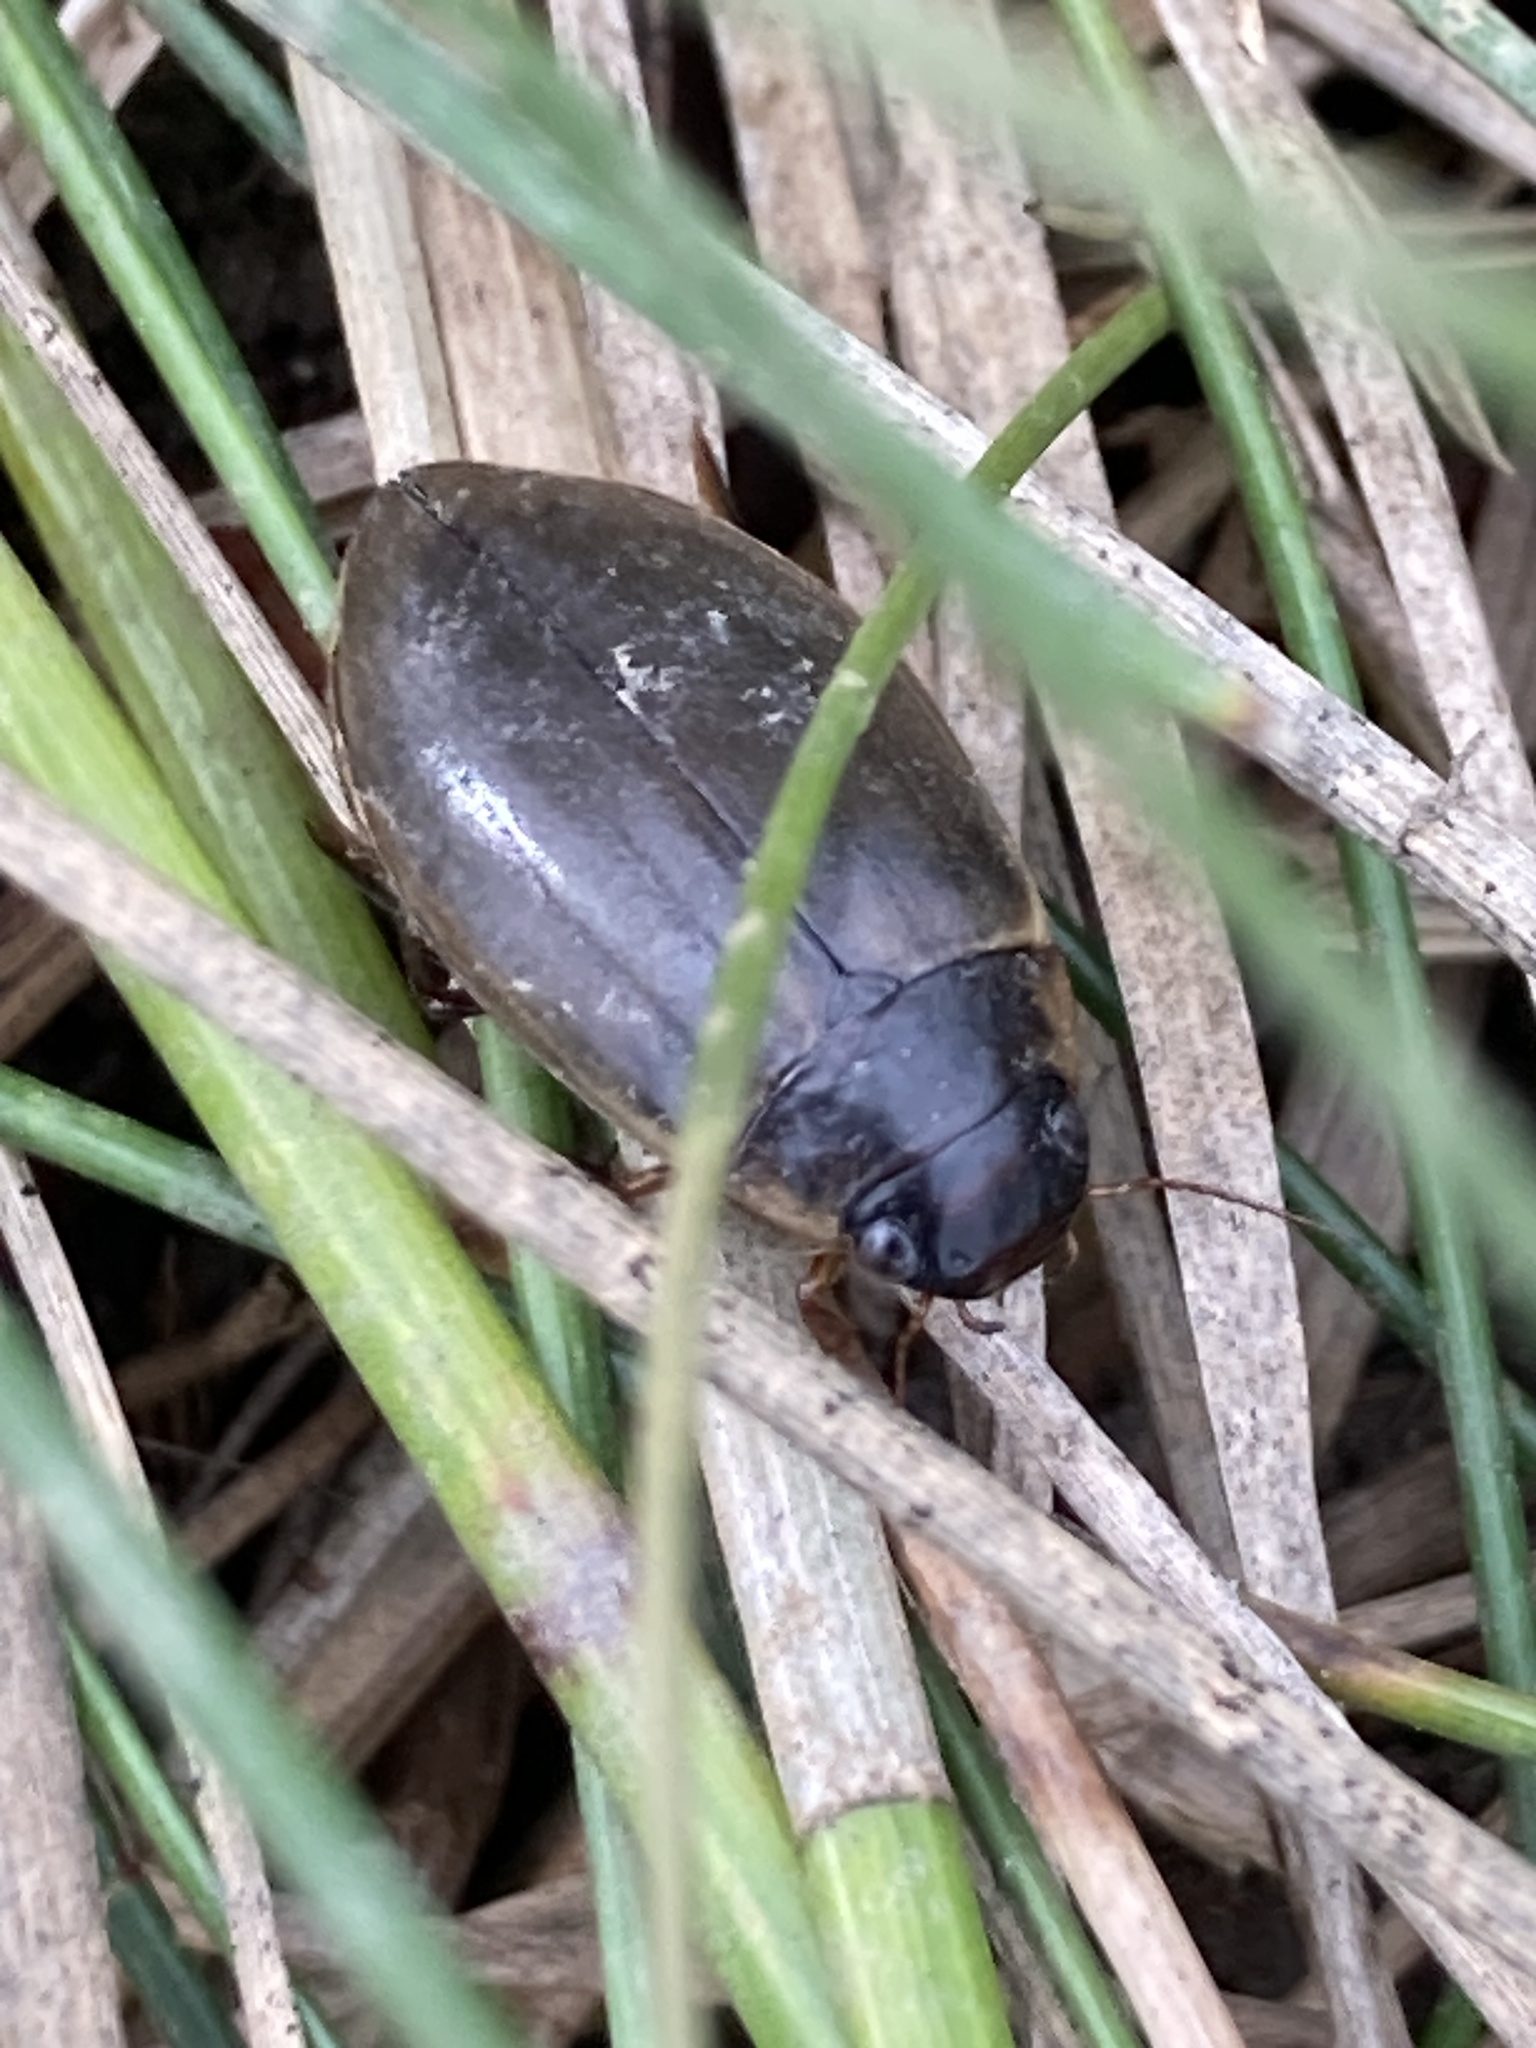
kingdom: Animalia
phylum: Arthropoda
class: Insecta
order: Coleoptera
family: Dytiscidae
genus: Colymbetes
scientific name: Colymbetes fuscus
